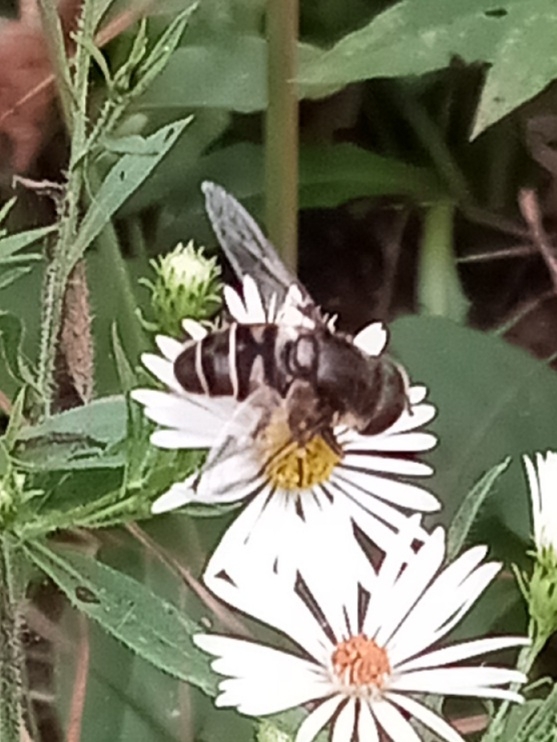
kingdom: Animalia
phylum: Arthropoda
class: Insecta
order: Diptera
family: Syrphidae
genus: Eristalis
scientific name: Eristalis dimidiata
